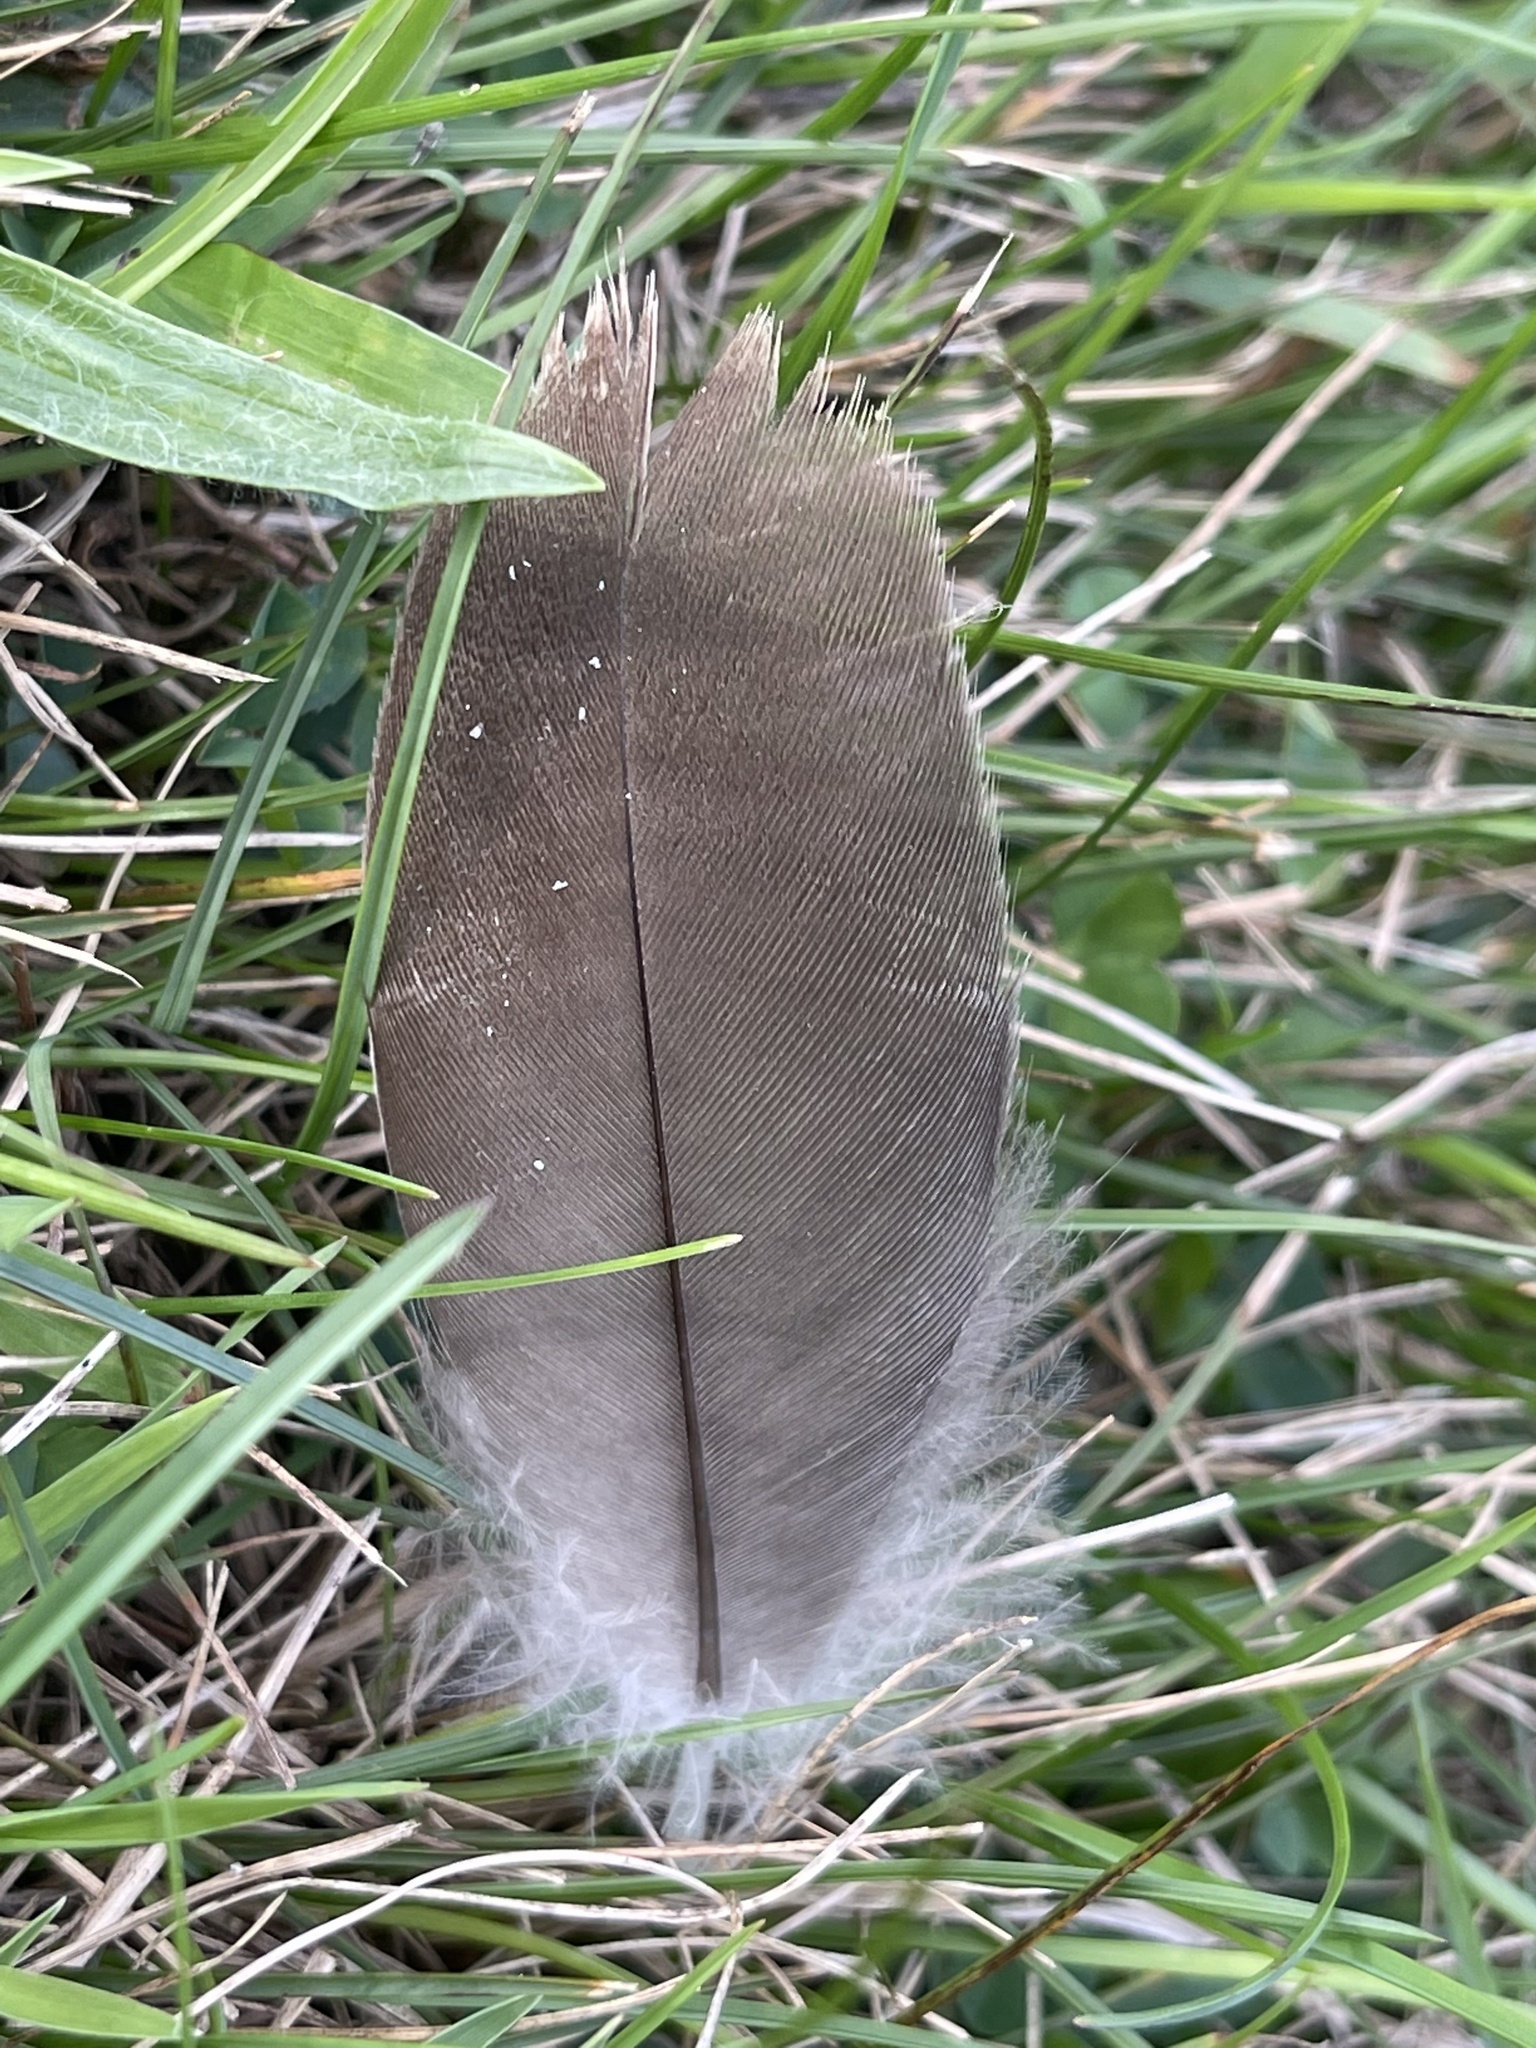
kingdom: Animalia
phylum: Chordata
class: Aves
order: Anseriformes
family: Anatidae
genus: Branta
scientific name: Branta canadensis
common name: Canada goose
